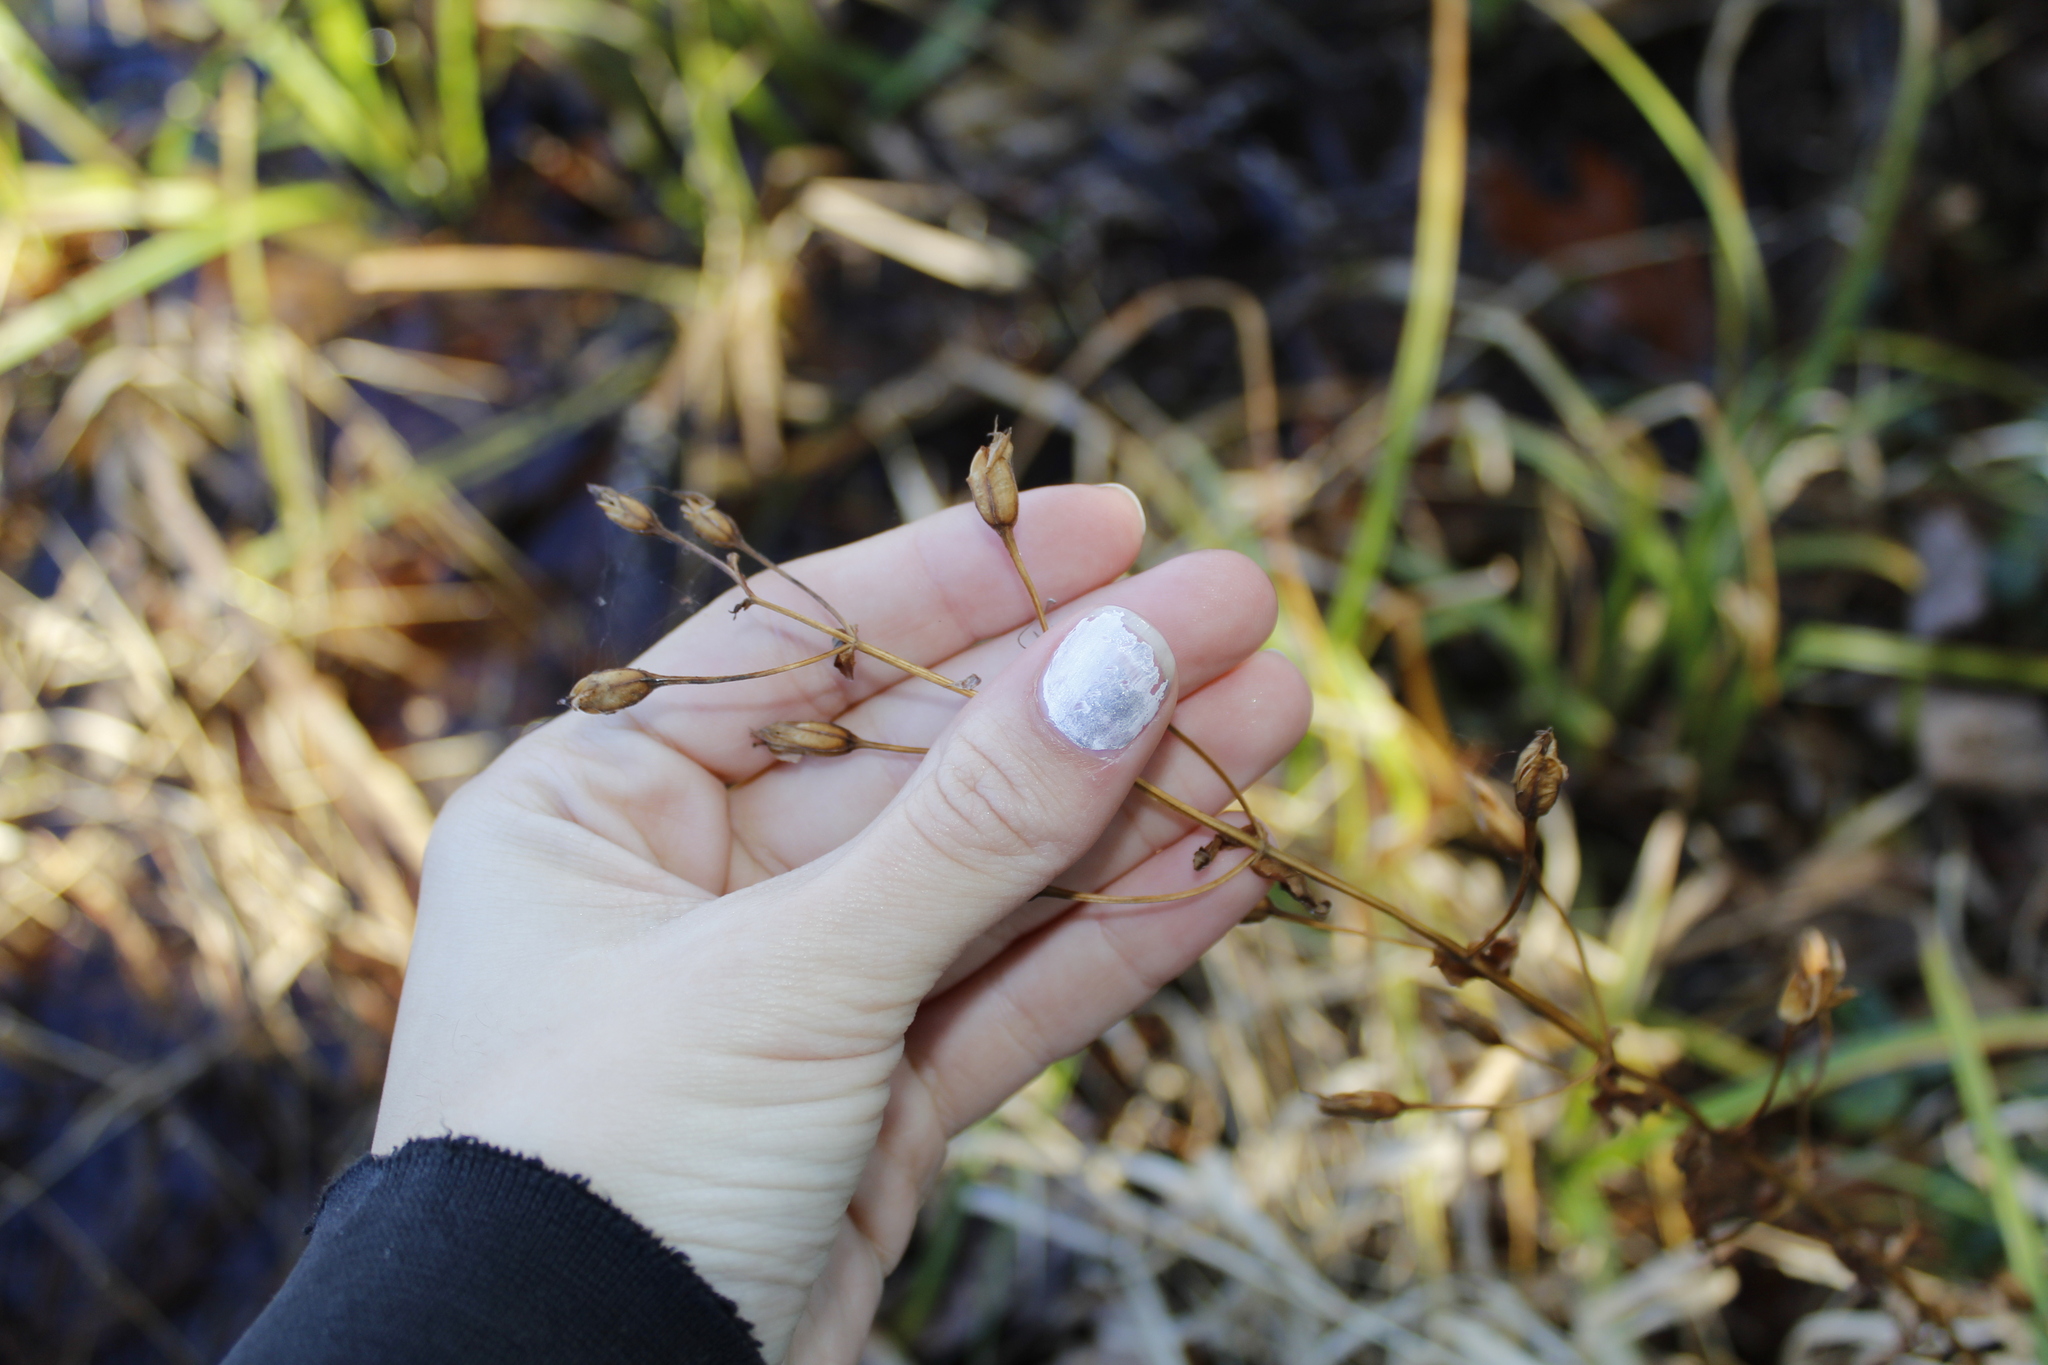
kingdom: Plantae
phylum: Tracheophyta
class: Magnoliopsida
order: Lamiales
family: Phrymaceae
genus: Mimulus
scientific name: Mimulus ringens
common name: Allegheny monkeyflower
